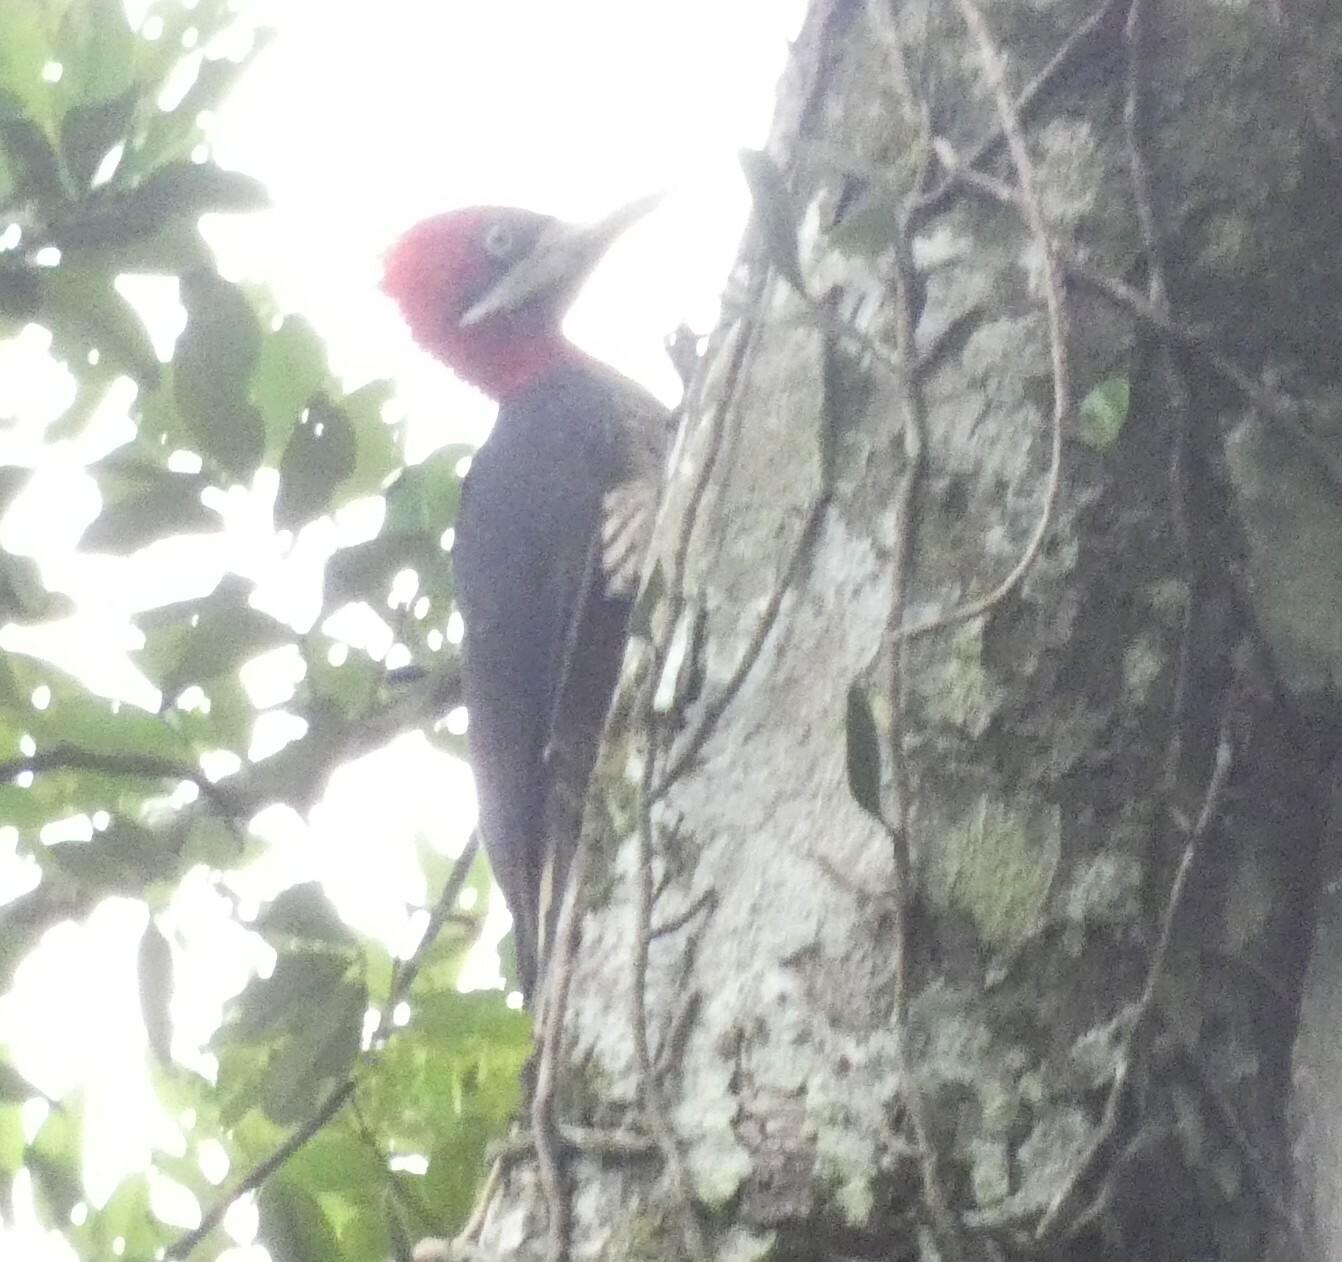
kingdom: Animalia
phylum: Chordata
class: Aves
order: Piciformes
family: Picidae
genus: Campephilus
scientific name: Campephilus robustus
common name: Robust woodpecker
